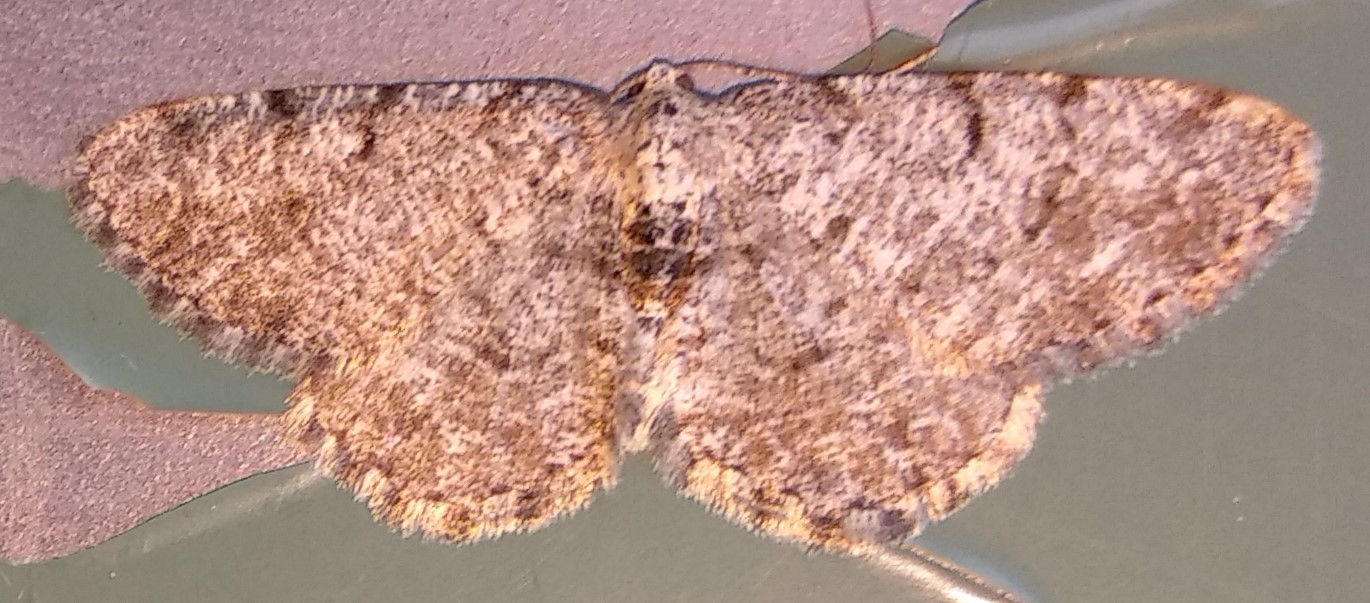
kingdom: Animalia
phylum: Arthropoda
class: Insecta
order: Lepidoptera
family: Geometridae
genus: Aethalura
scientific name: Aethalura intertexta
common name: Four-barred gray
